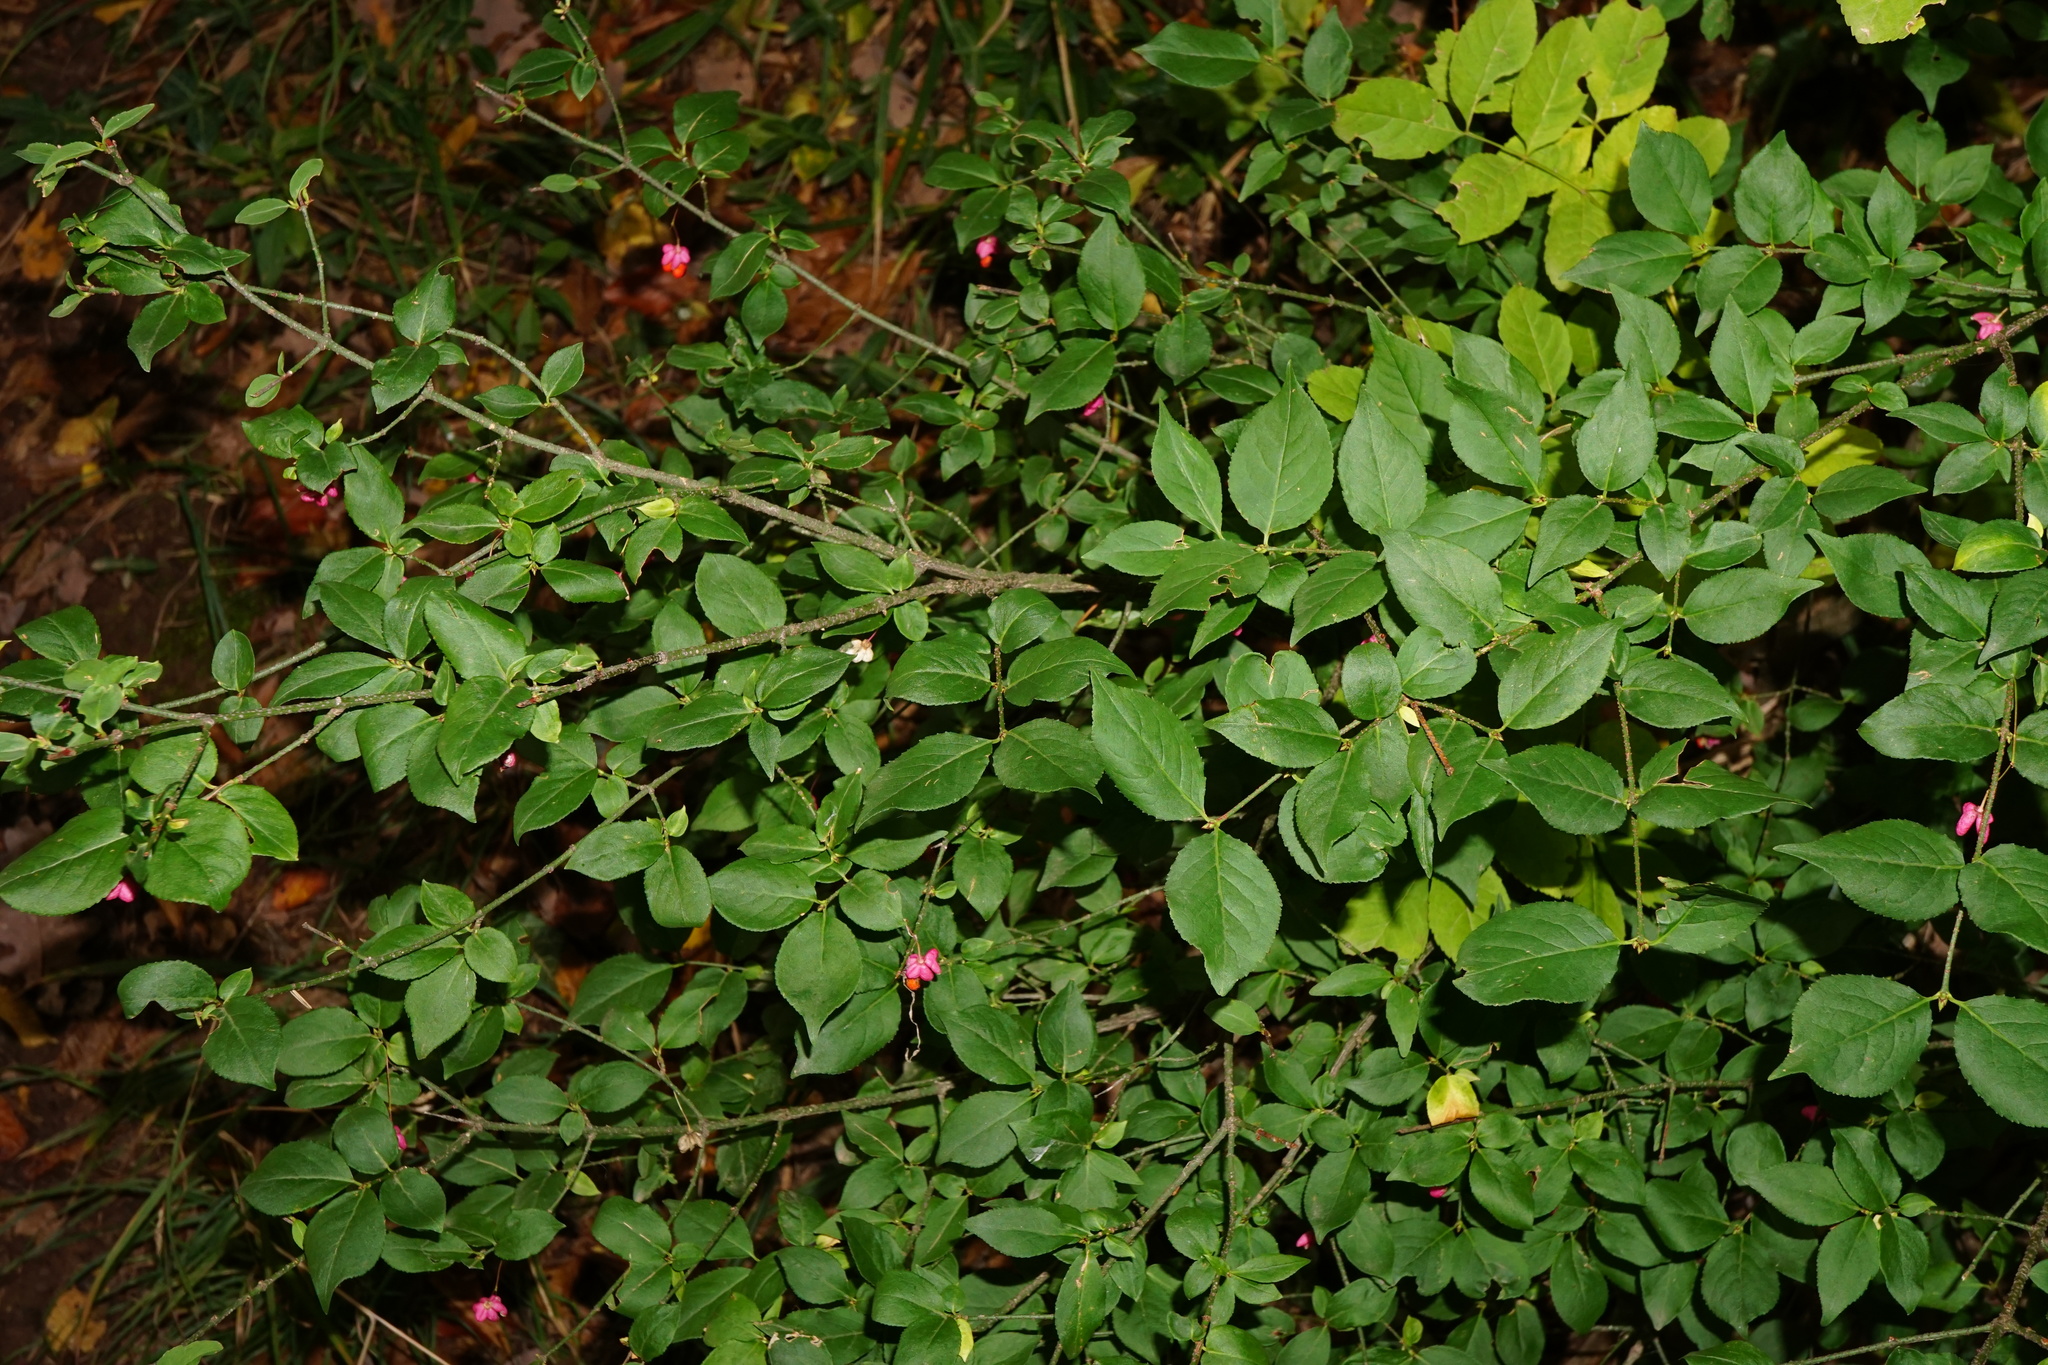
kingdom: Plantae
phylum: Tracheophyta
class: Magnoliopsida
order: Celastrales
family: Celastraceae
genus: Euonymus
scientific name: Euonymus verrucosus
